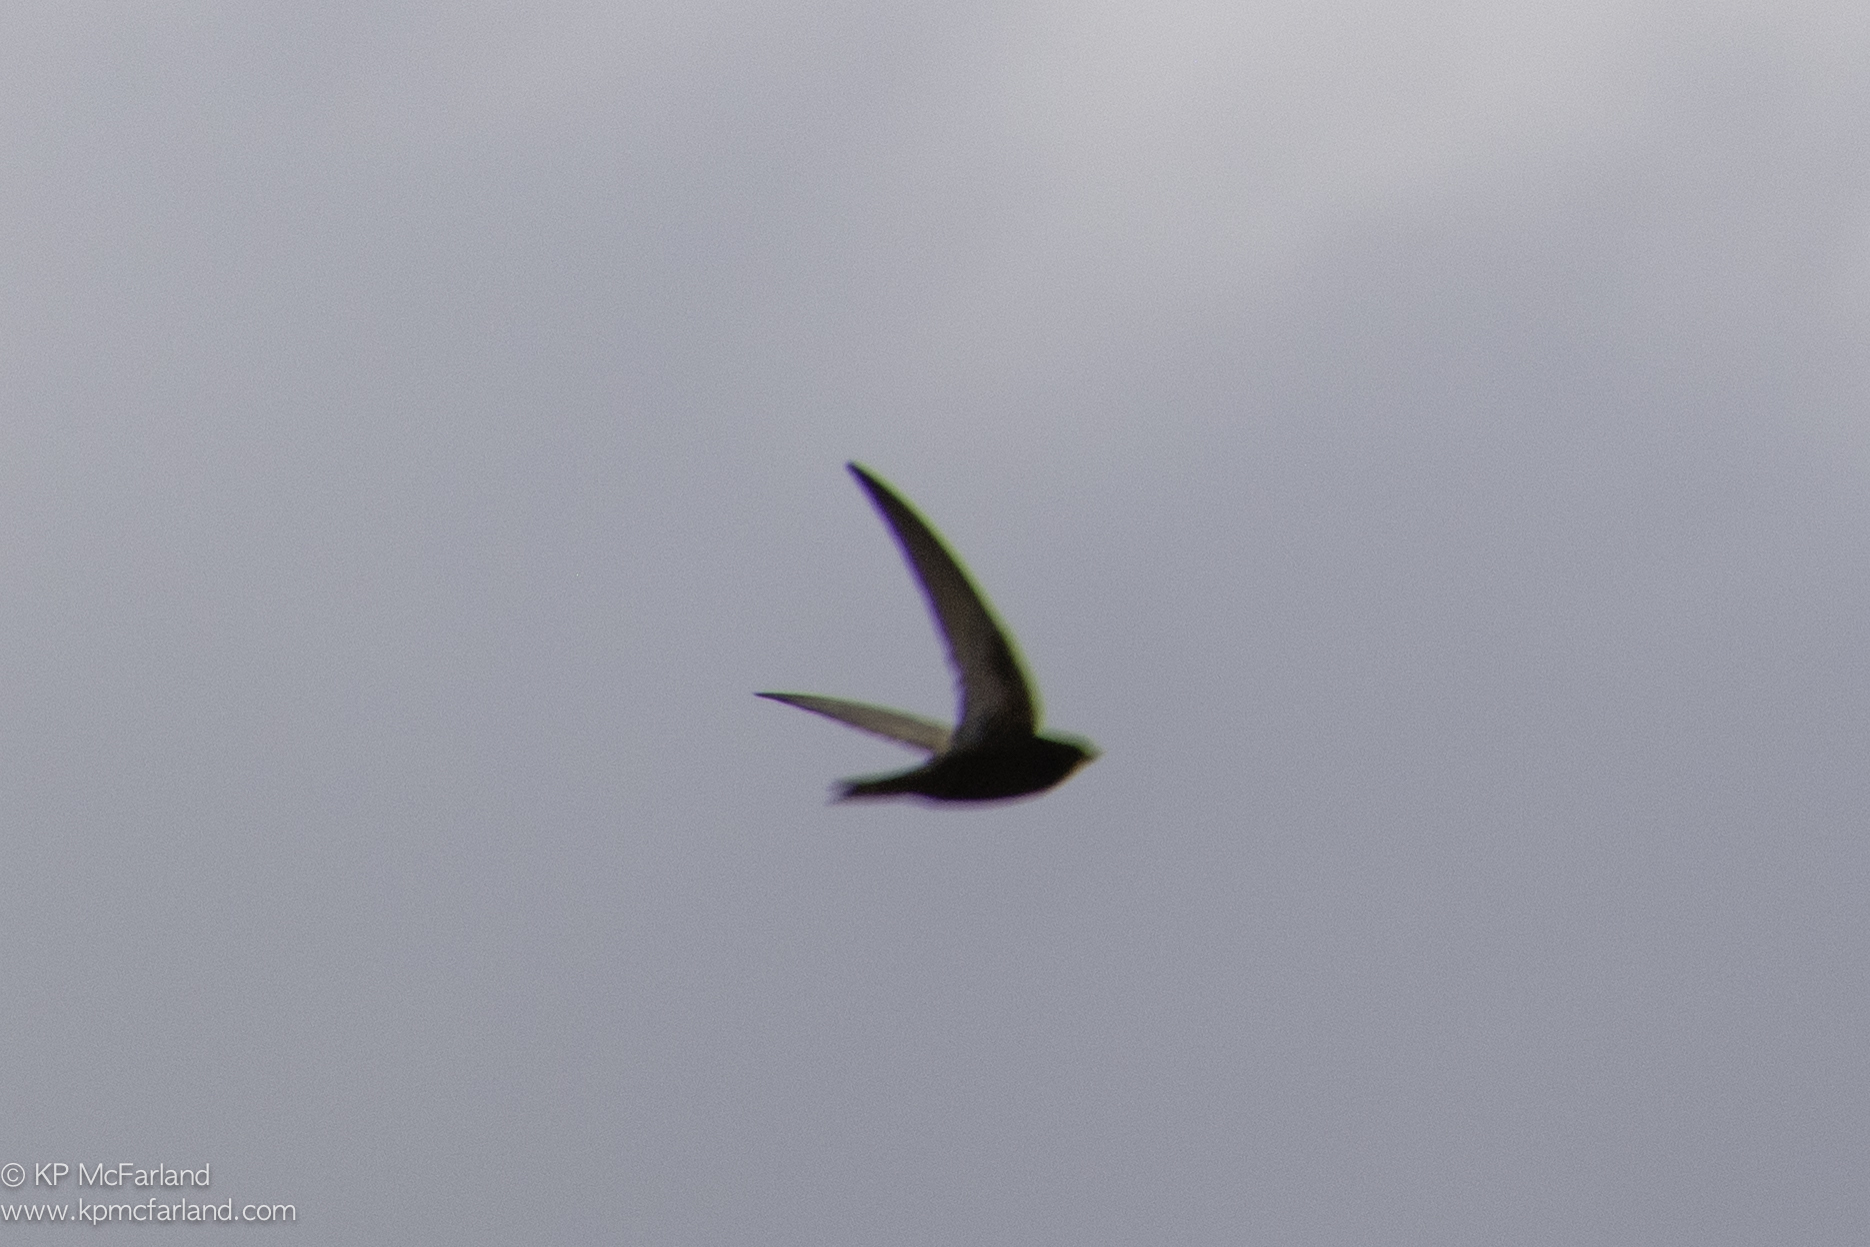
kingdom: Animalia
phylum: Chordata
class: Aves
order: Apodiformes
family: Apodidae
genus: Apus
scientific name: Apus apus
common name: Common swift
